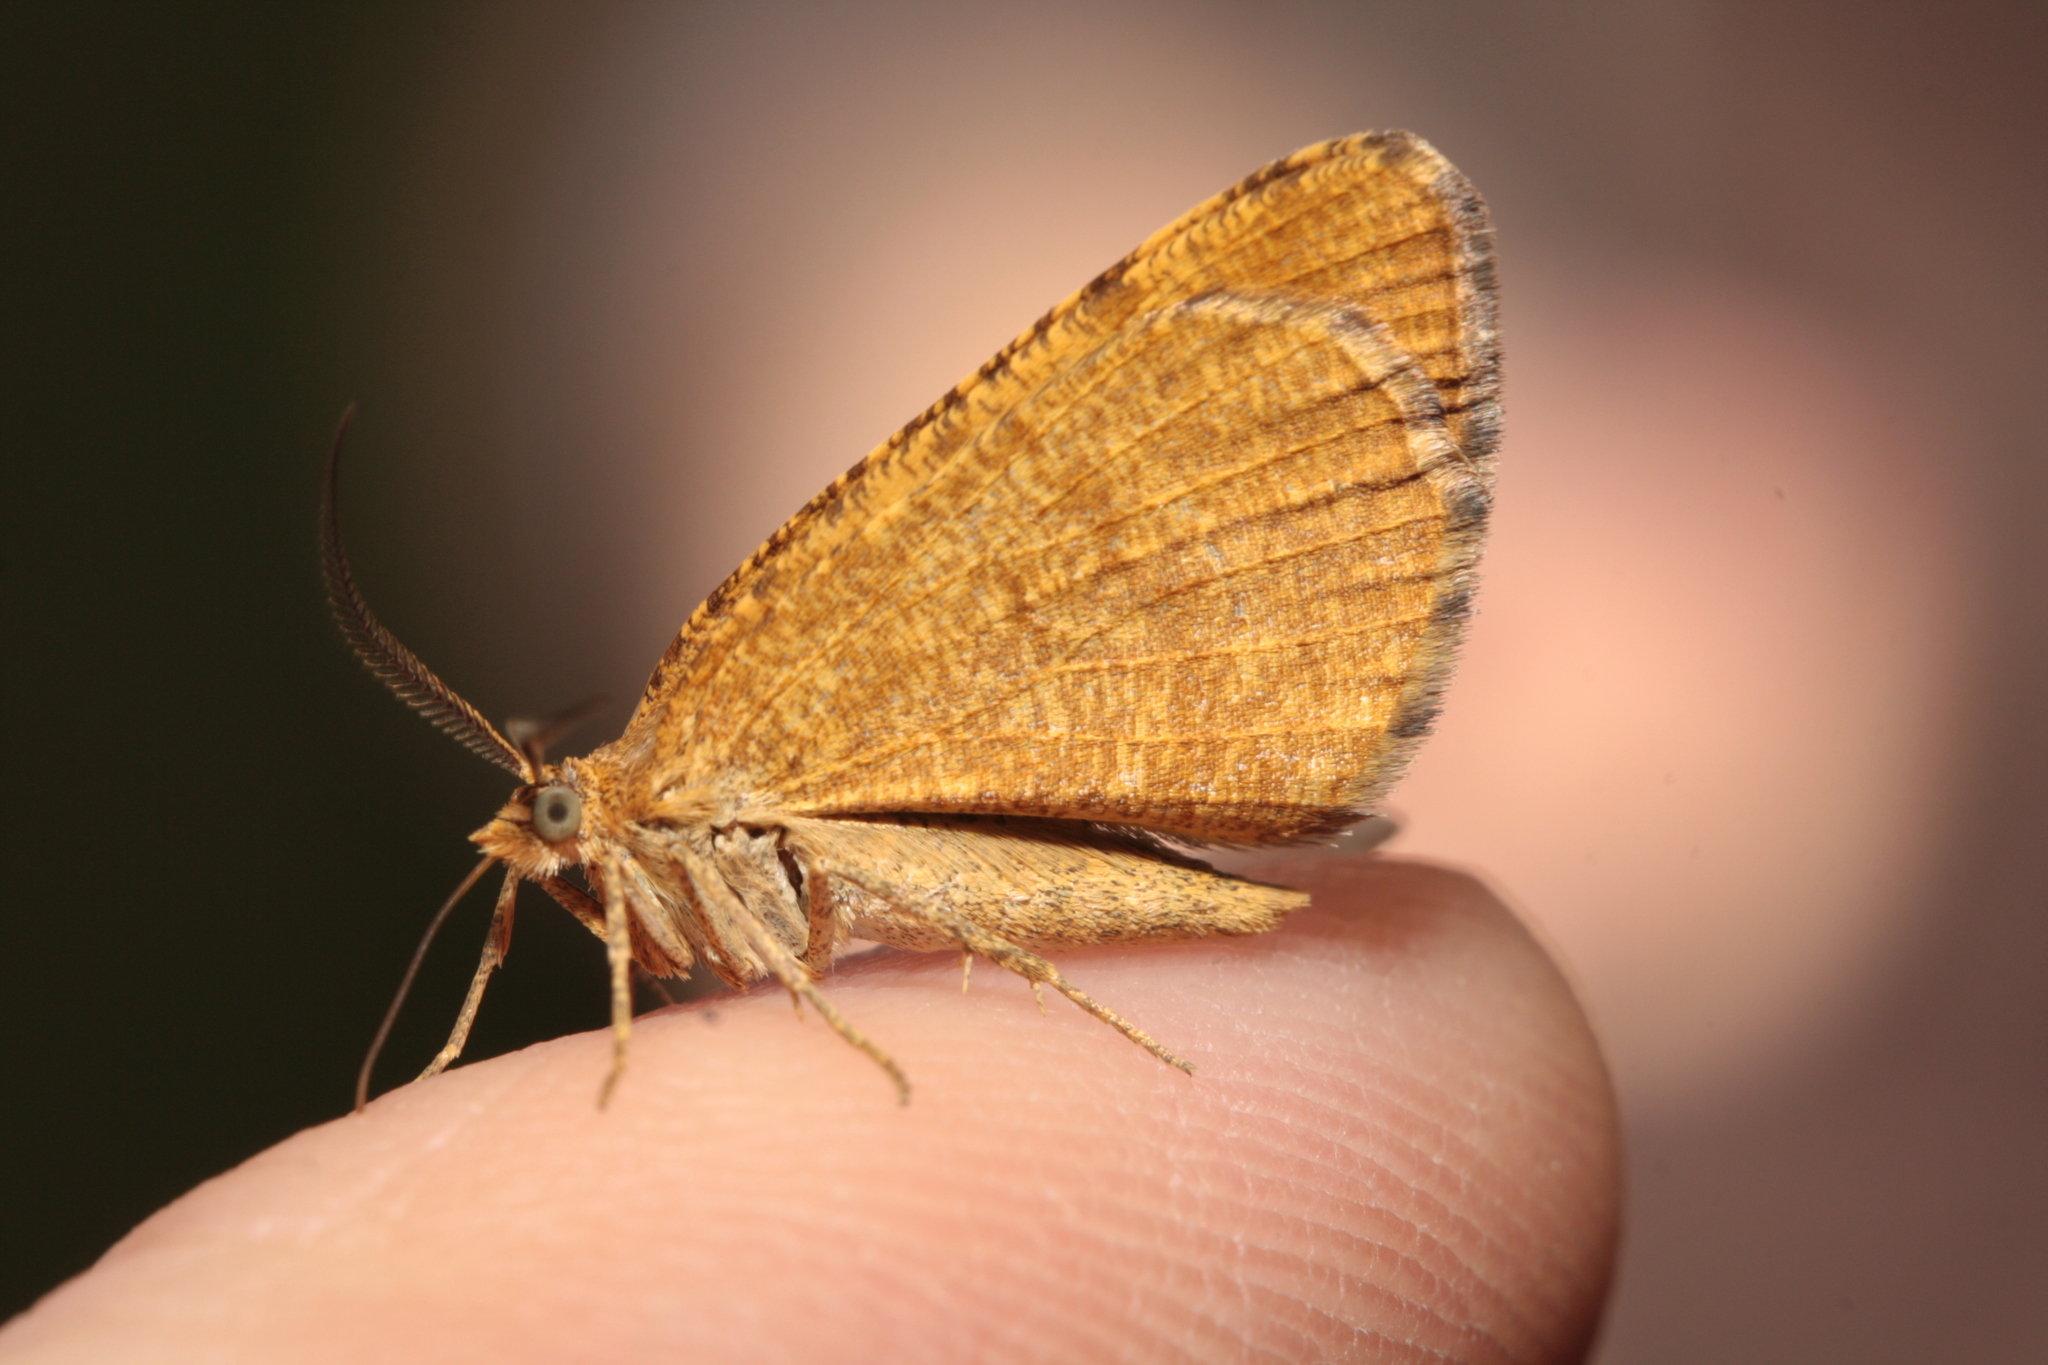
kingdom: Animalia
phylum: Arthropoda
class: Insecta
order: Lepidoptera
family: Geometridae
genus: Macaria
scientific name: Macaria brunneata
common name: Rannoch looper
